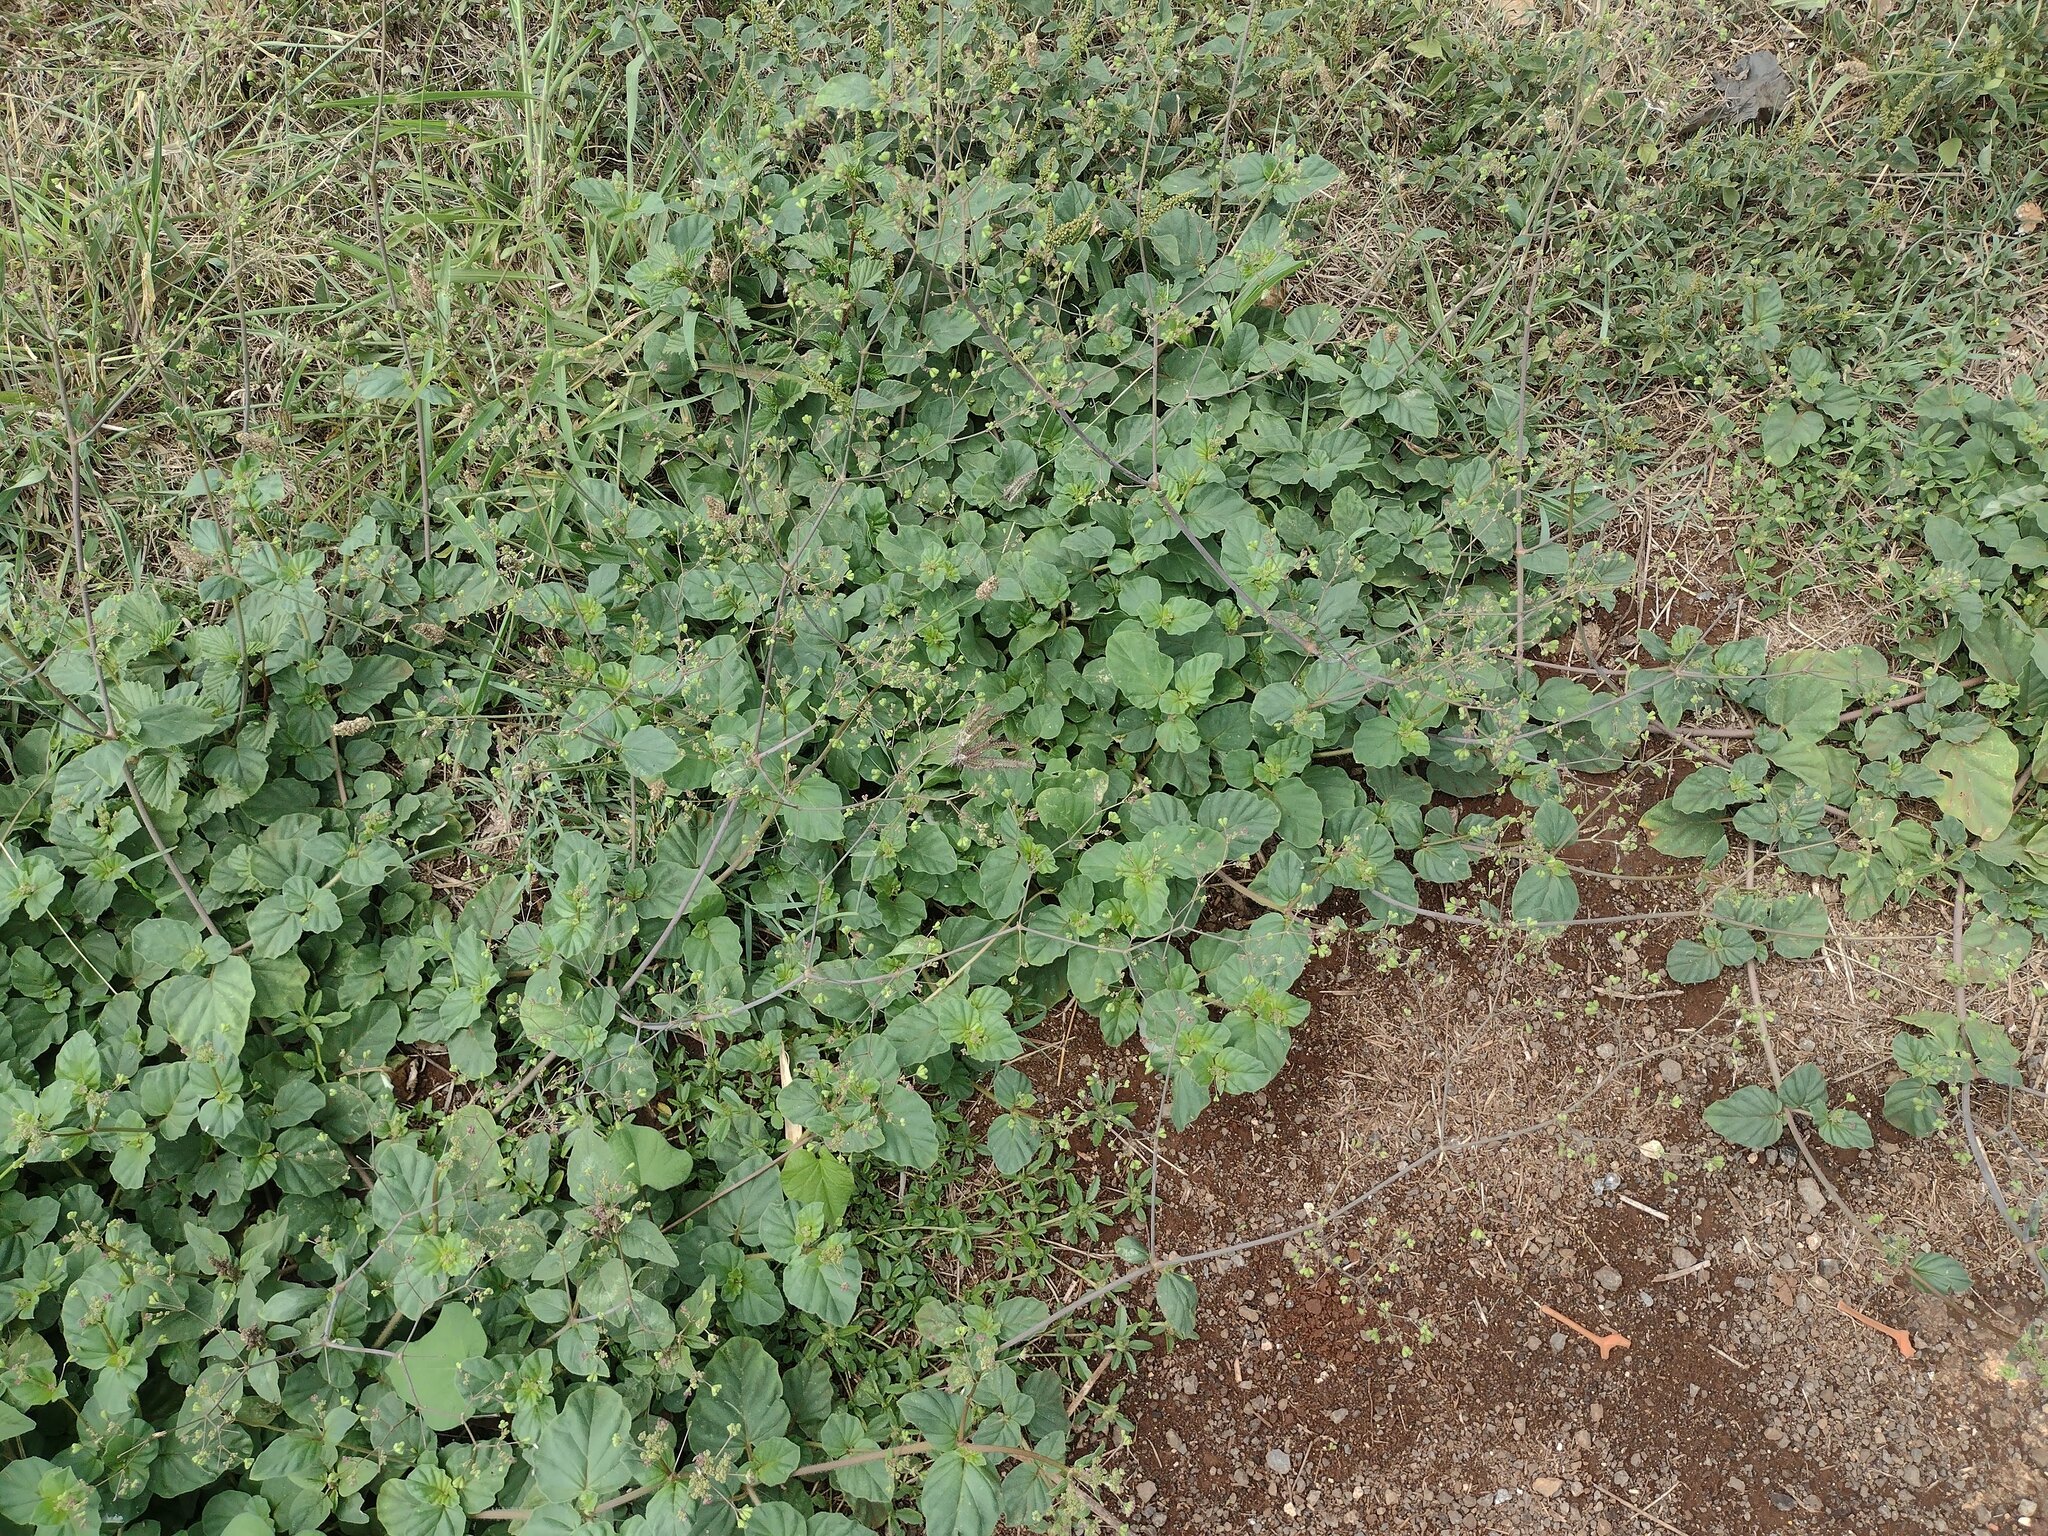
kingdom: Plantae
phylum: Tracheophyta
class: Magnoliopsida
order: Caryophyllales
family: Nyctaginaceae
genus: Boerhavia
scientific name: Boerhavia diffusa
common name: Red spiderling
